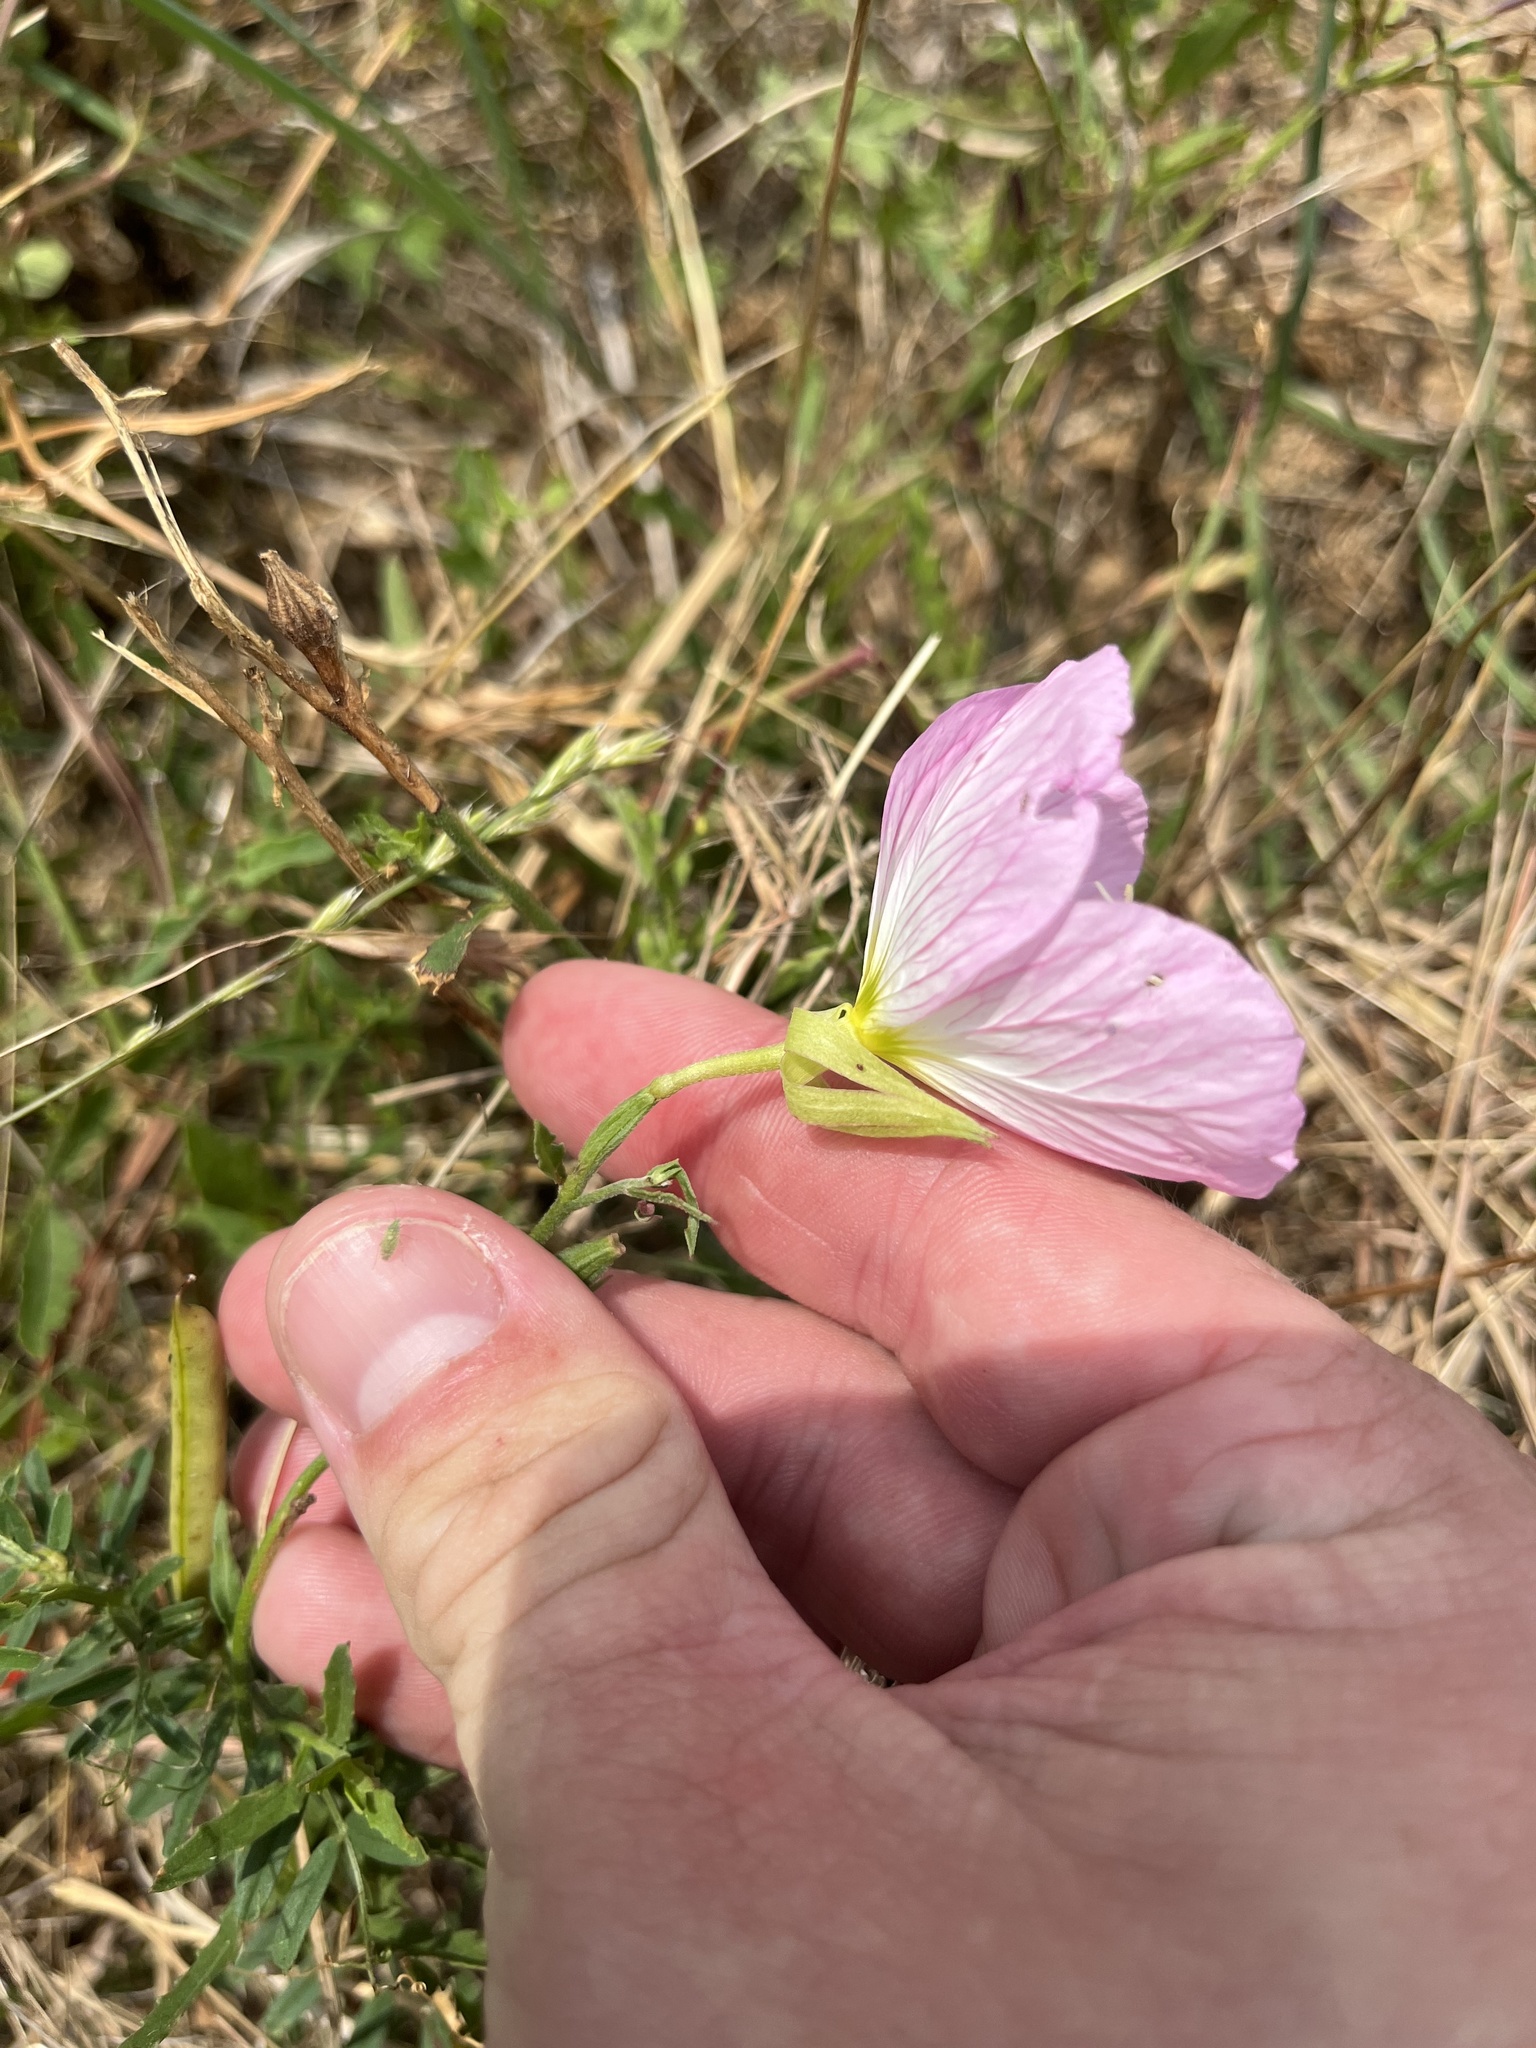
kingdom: Plantae
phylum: Tracheophyta
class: Magnoliopsida
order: Myrtales
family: Onagraceae
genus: Oenothera
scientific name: Oenothera speciosa
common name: White evening-primrose
